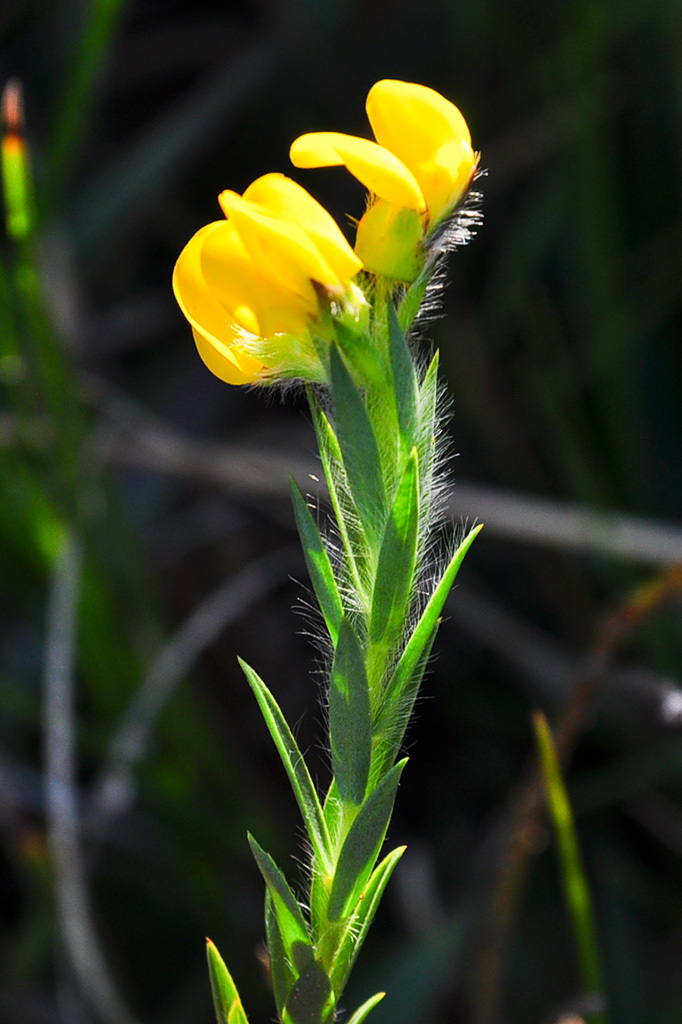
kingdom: Plantae
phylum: Tracheophyta
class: Magnoliopsida
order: Fabales
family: Fabaceae
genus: Liparia
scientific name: Liparia angustifolia
